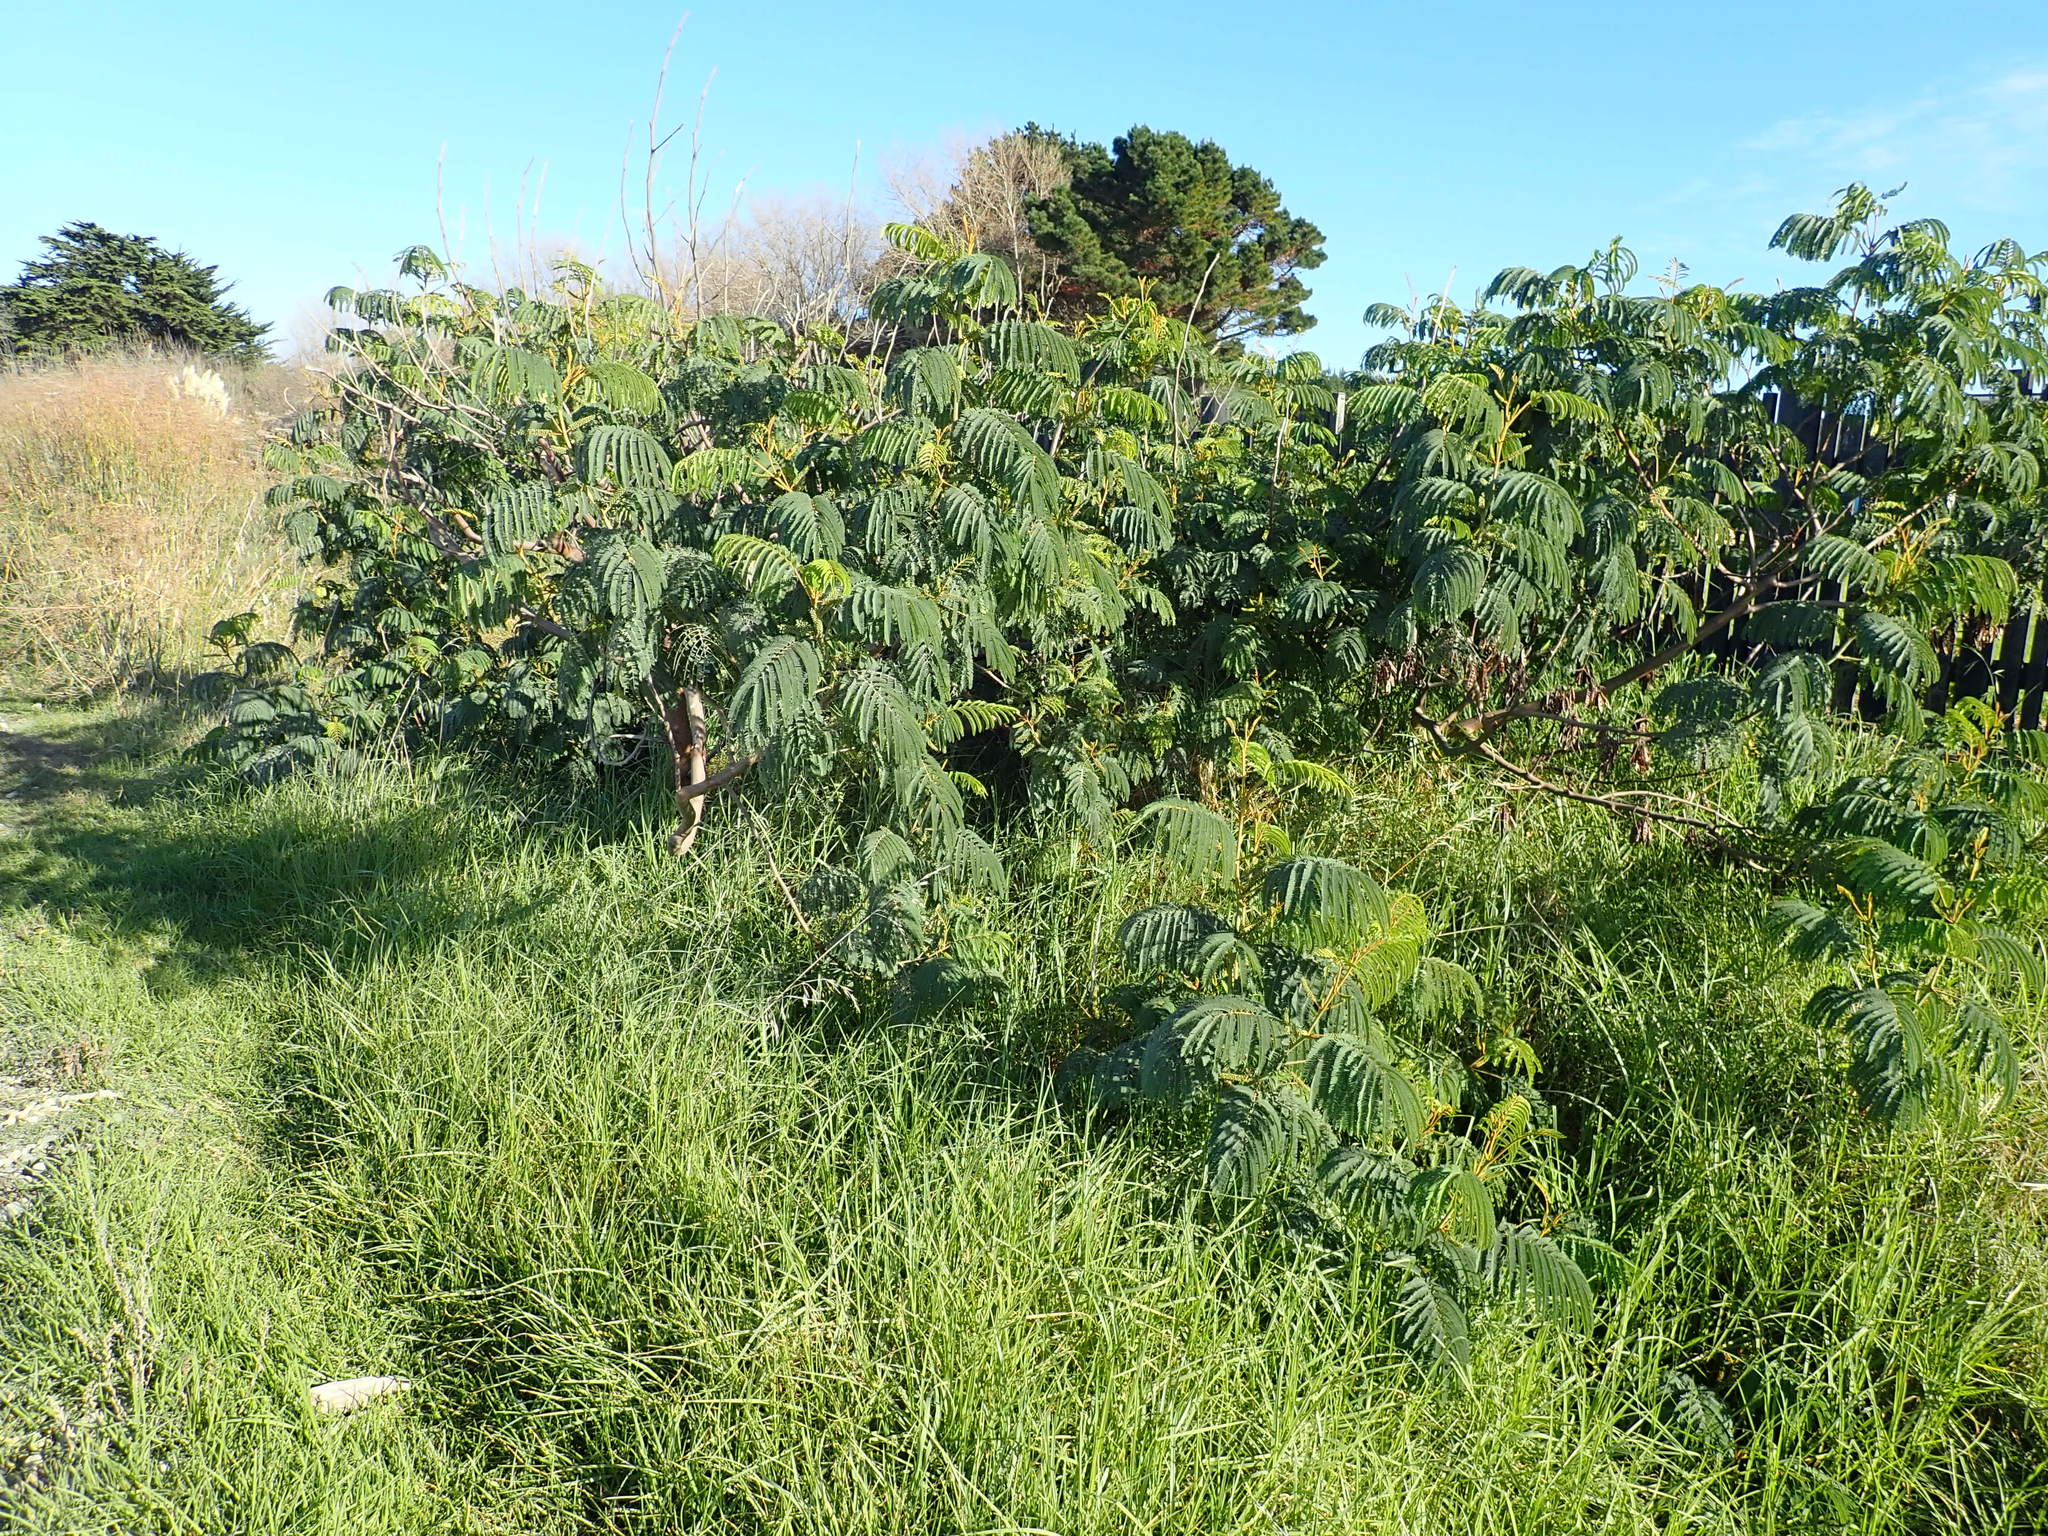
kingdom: Plantae
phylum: Tracheophyta
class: Magnoliopsida
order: Fabales
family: Fabaceae
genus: Paraserianthes
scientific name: Paraserianthes lophantha
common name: Plume albizia
